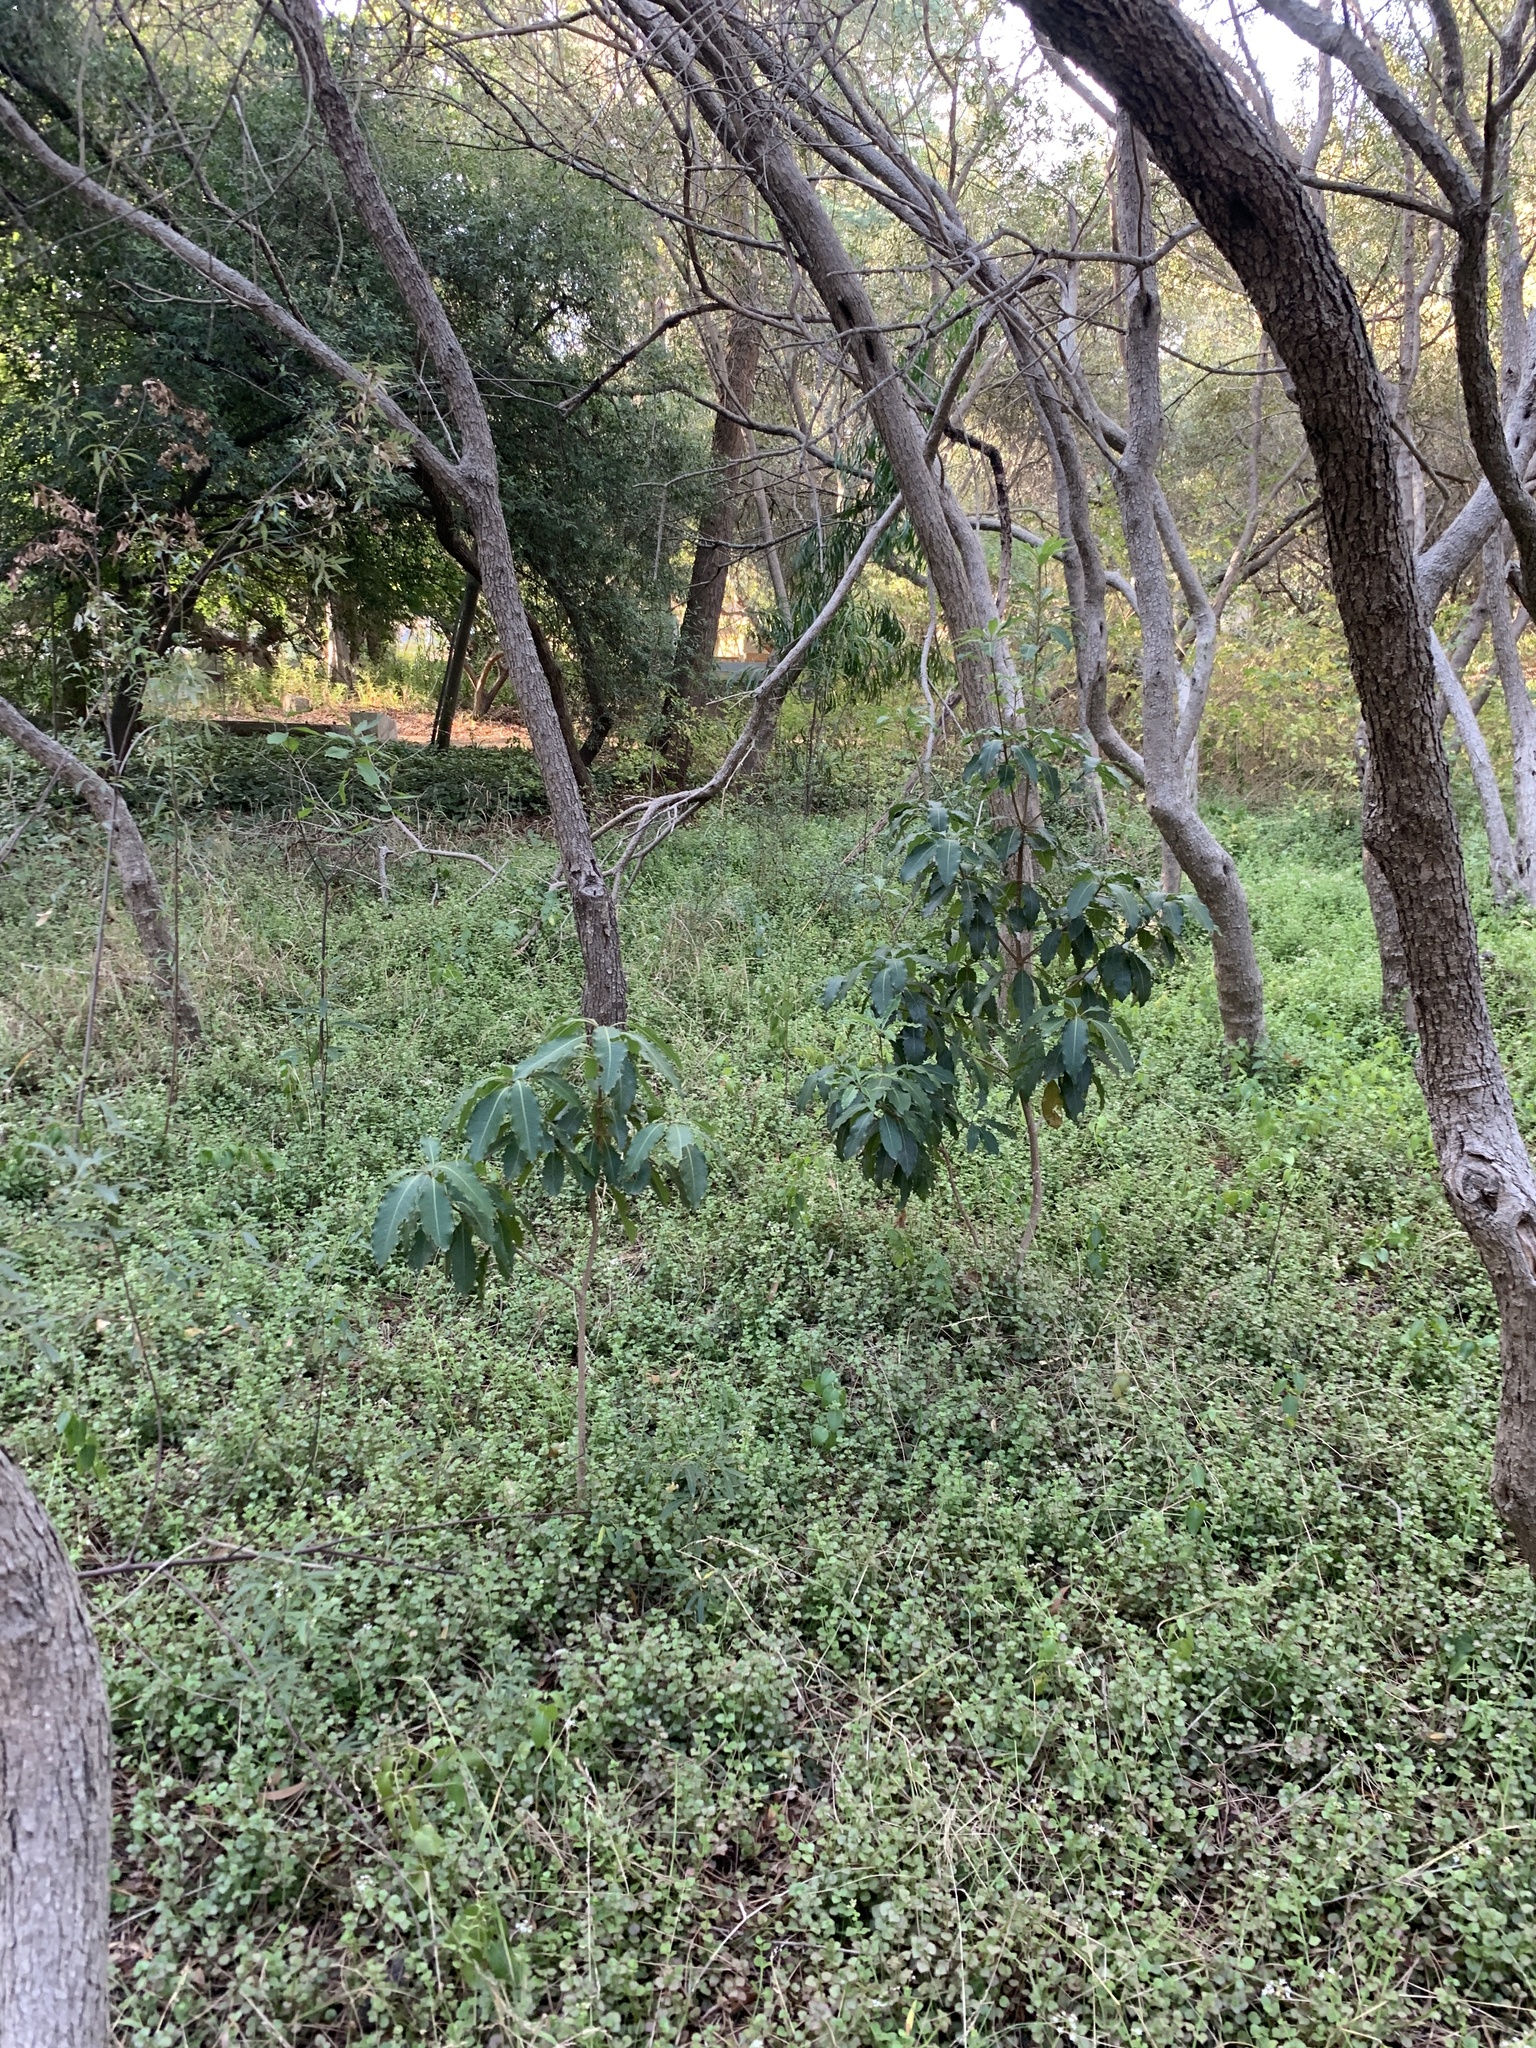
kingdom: Plantae
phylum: Tracheophyta
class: Magnoliopsida
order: Apiales
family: Pittosporaceae
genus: Pittosporum
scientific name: Pittosporum undulatum
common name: Australian cheesewood
